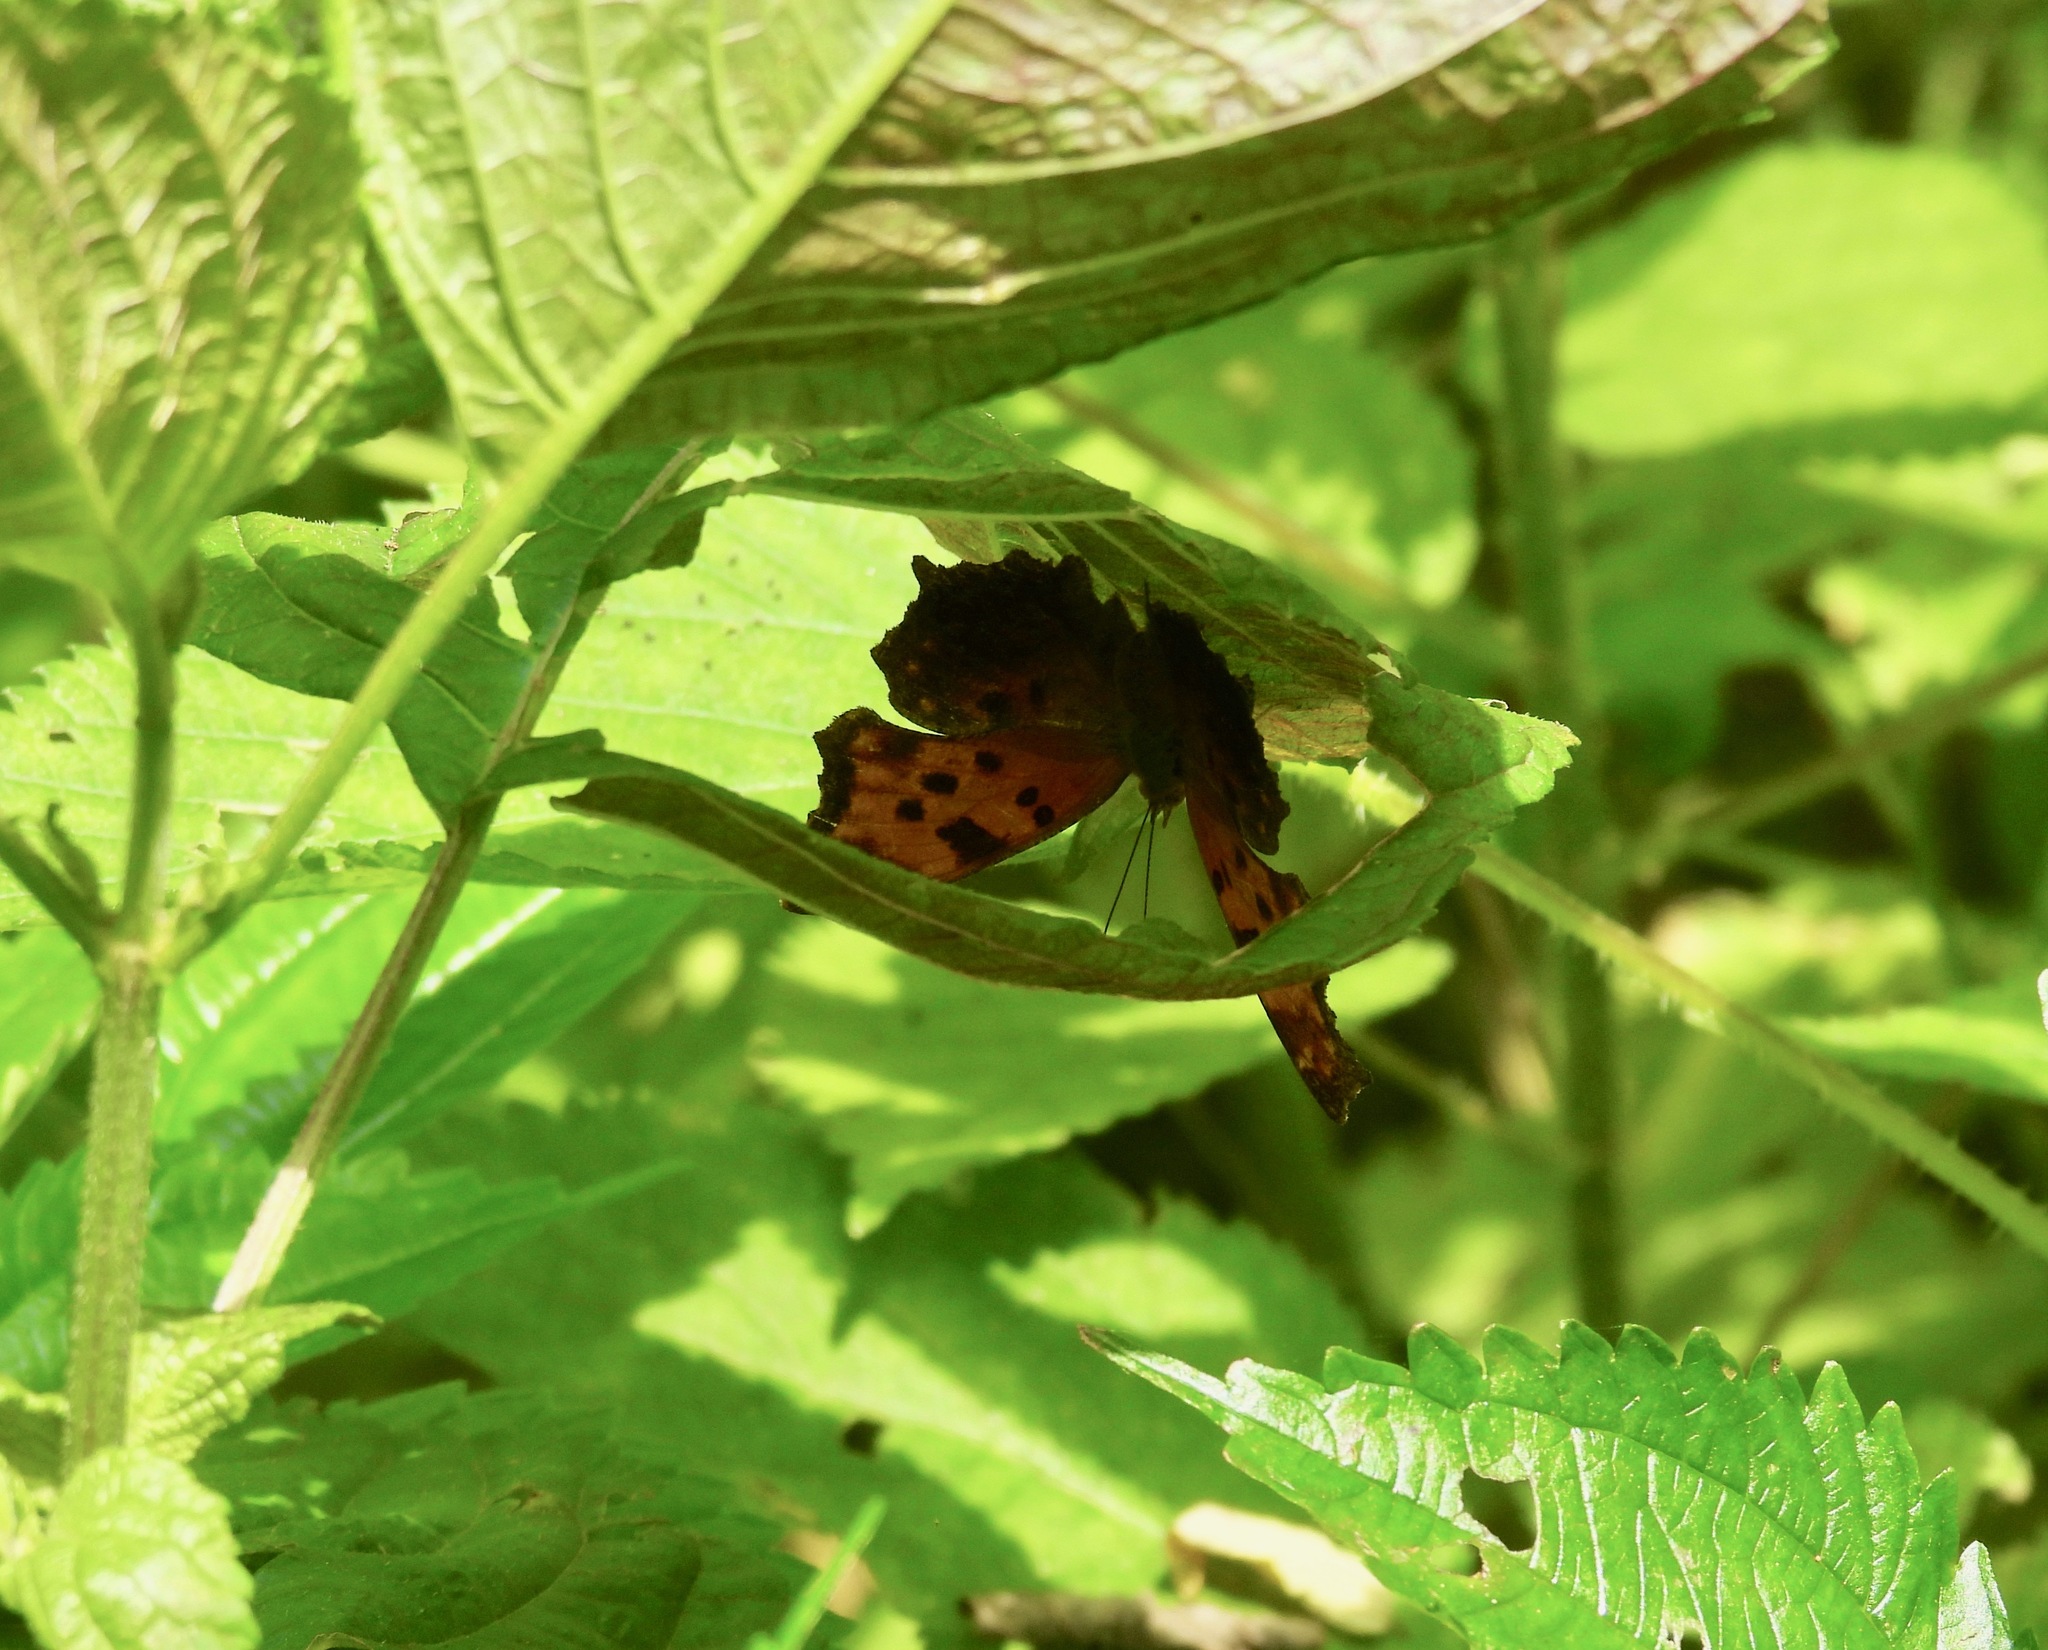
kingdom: Animalia
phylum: Arthropoda
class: Insecta
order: Lepidoptera
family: Nymphalidae
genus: Polygonia
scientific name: Polygonia comma
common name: Eastern comma
